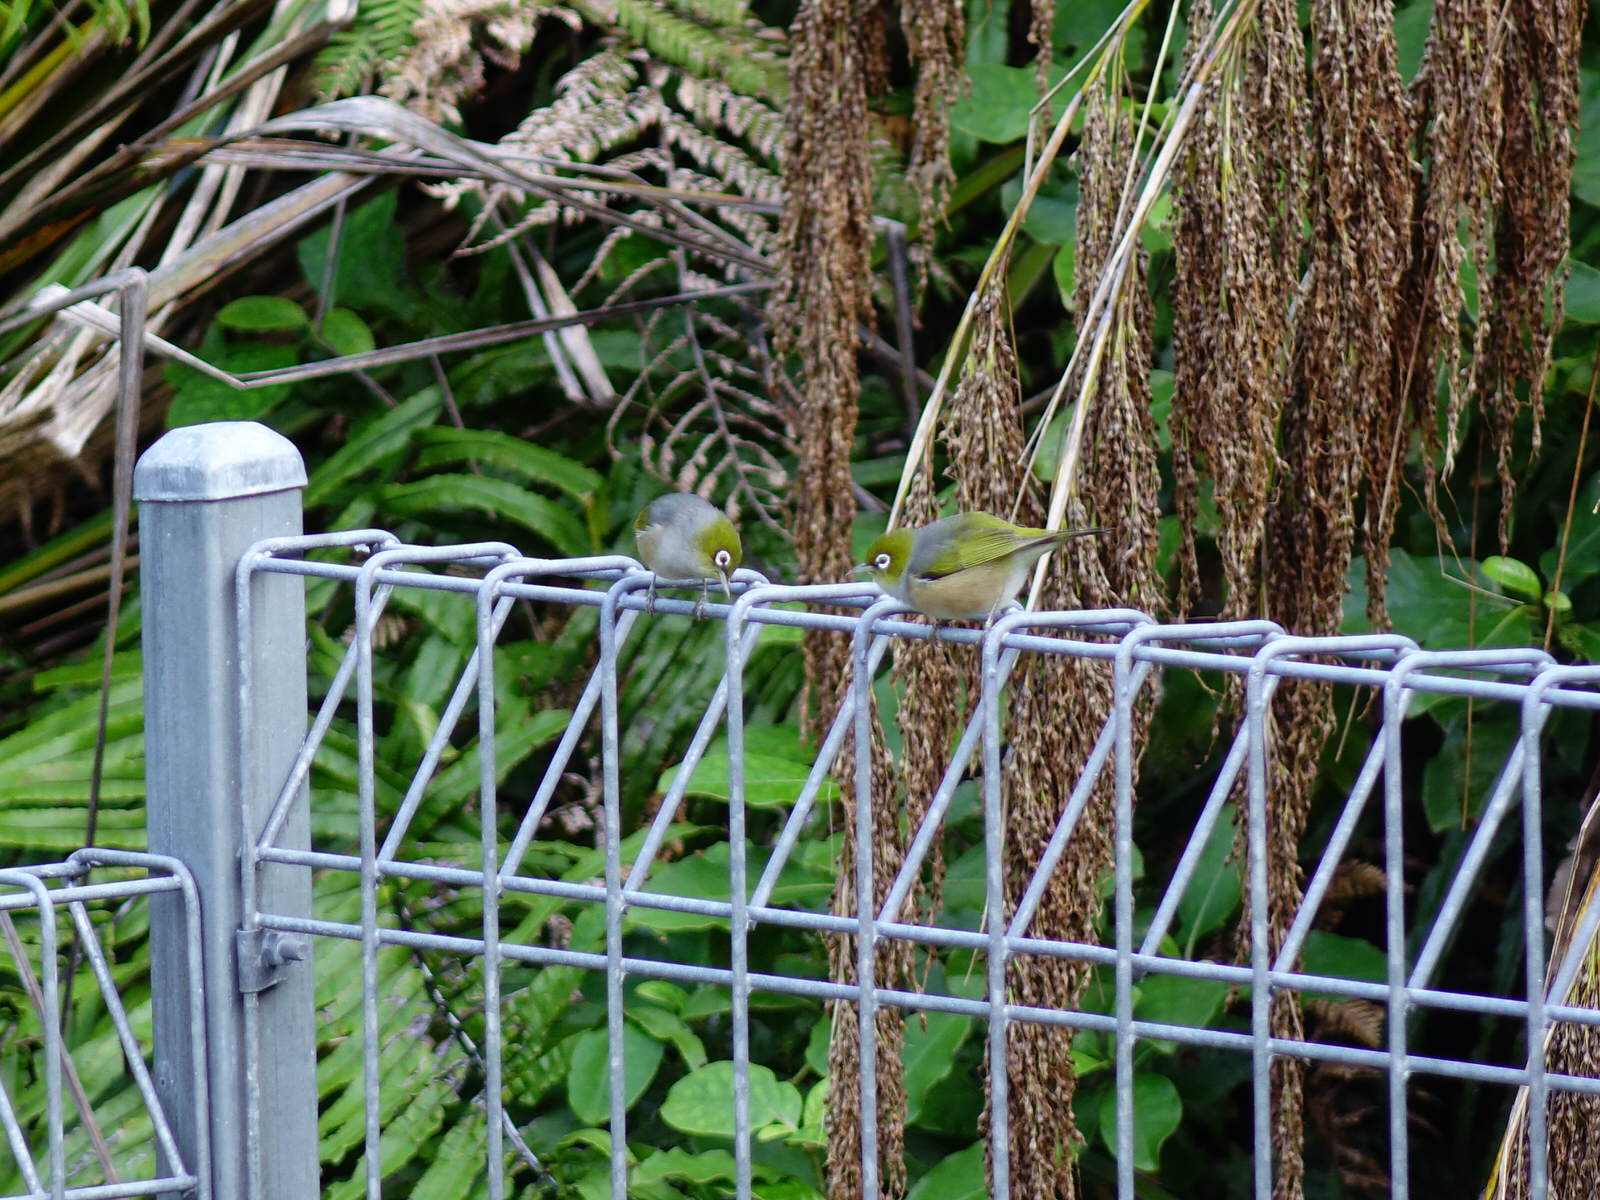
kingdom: Animalia
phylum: Chordata
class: Aves
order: Passeriformes
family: Zosteropidae
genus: Zosterops
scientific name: Zosterops lateralis
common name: Silvereye
